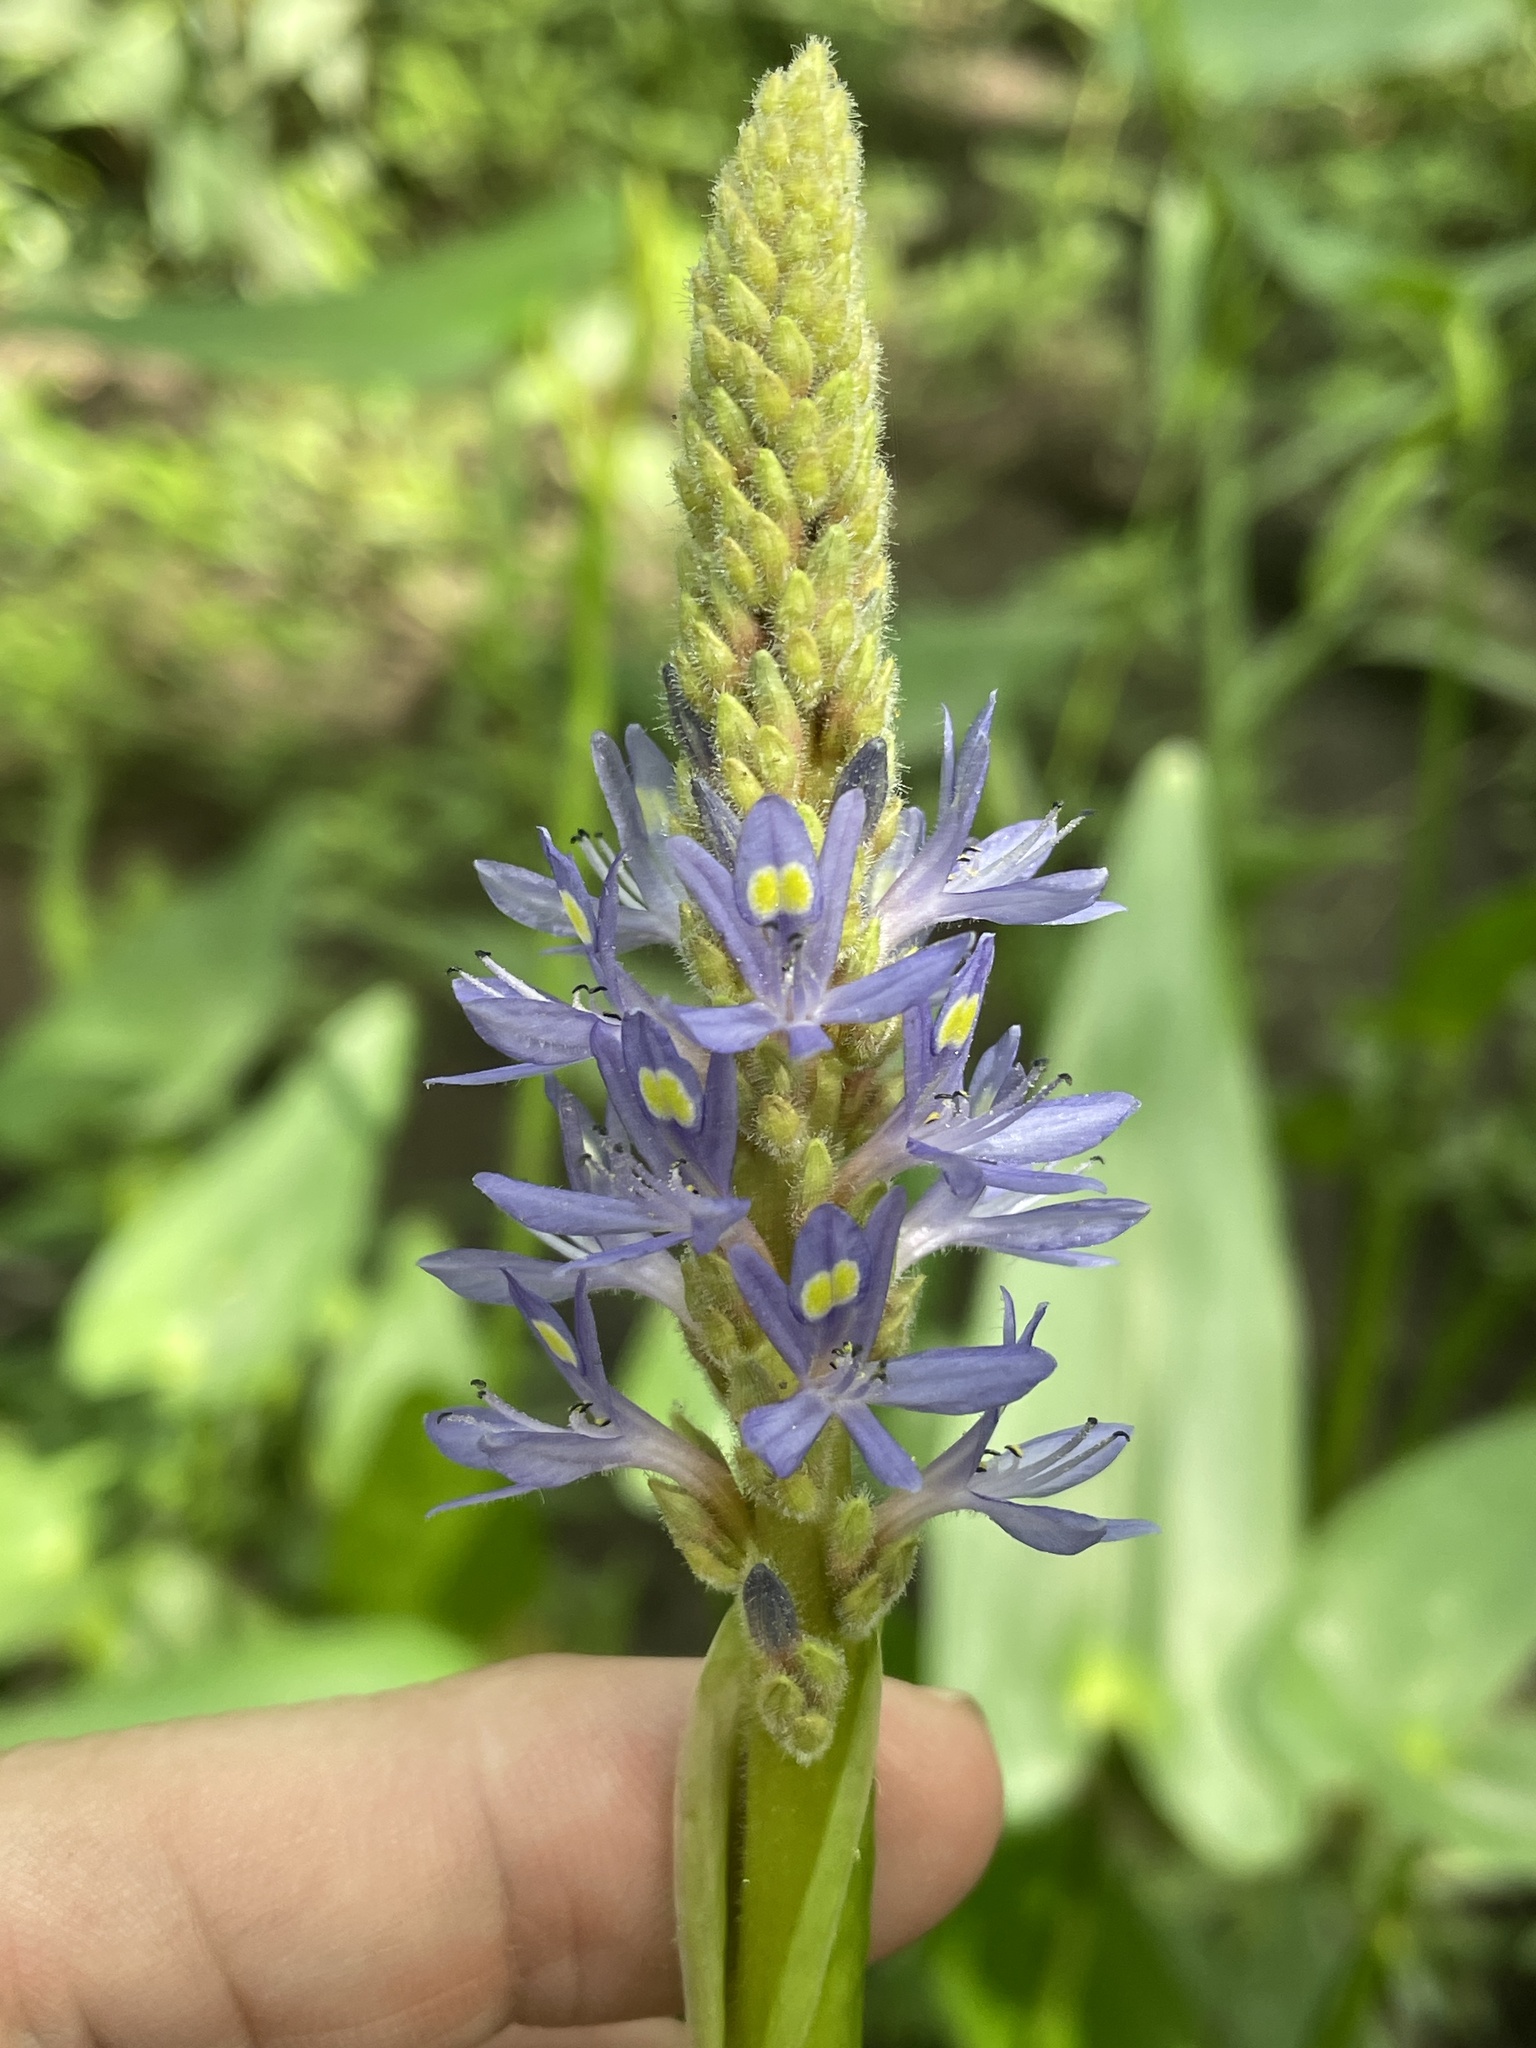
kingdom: Plantae
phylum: Tracheophyta
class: Liliopsida
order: Commelinales
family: Pontederiaceae
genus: Pontederia
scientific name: Pontederia cordata
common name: Pickerelweed
